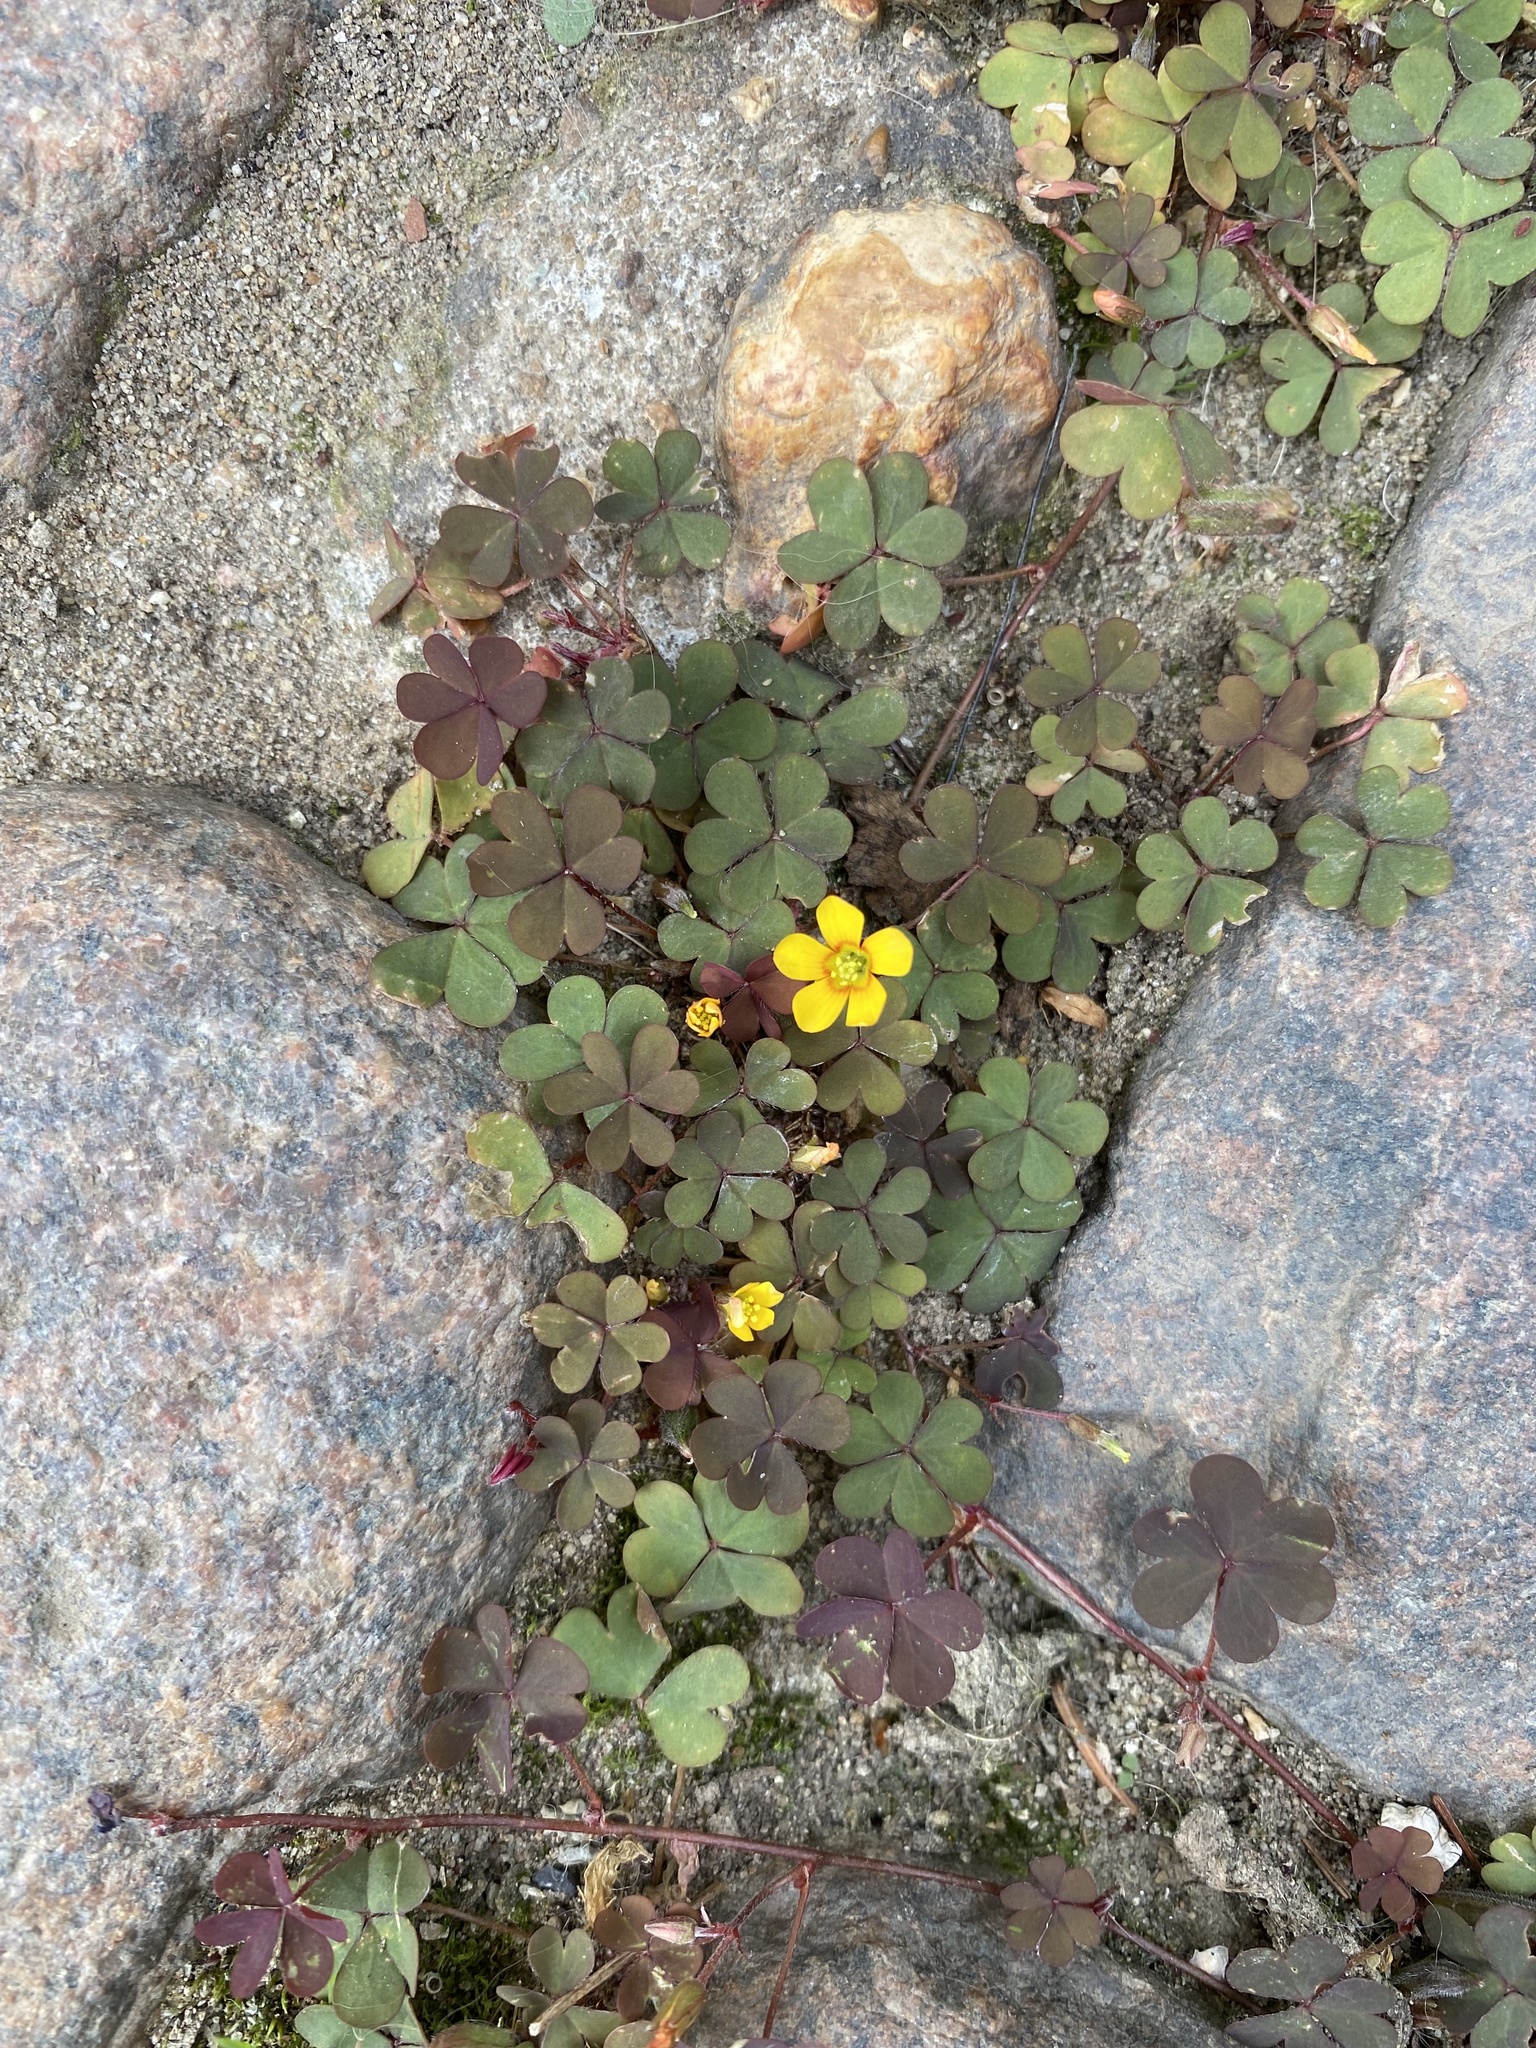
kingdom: Plantae
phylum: Tracheophyta
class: Magnoliopsida
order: Oxalidales
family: Oxalidaceae
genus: Oxalis
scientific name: Oxalis corniculata
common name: Procumbent yellow-sorrel
